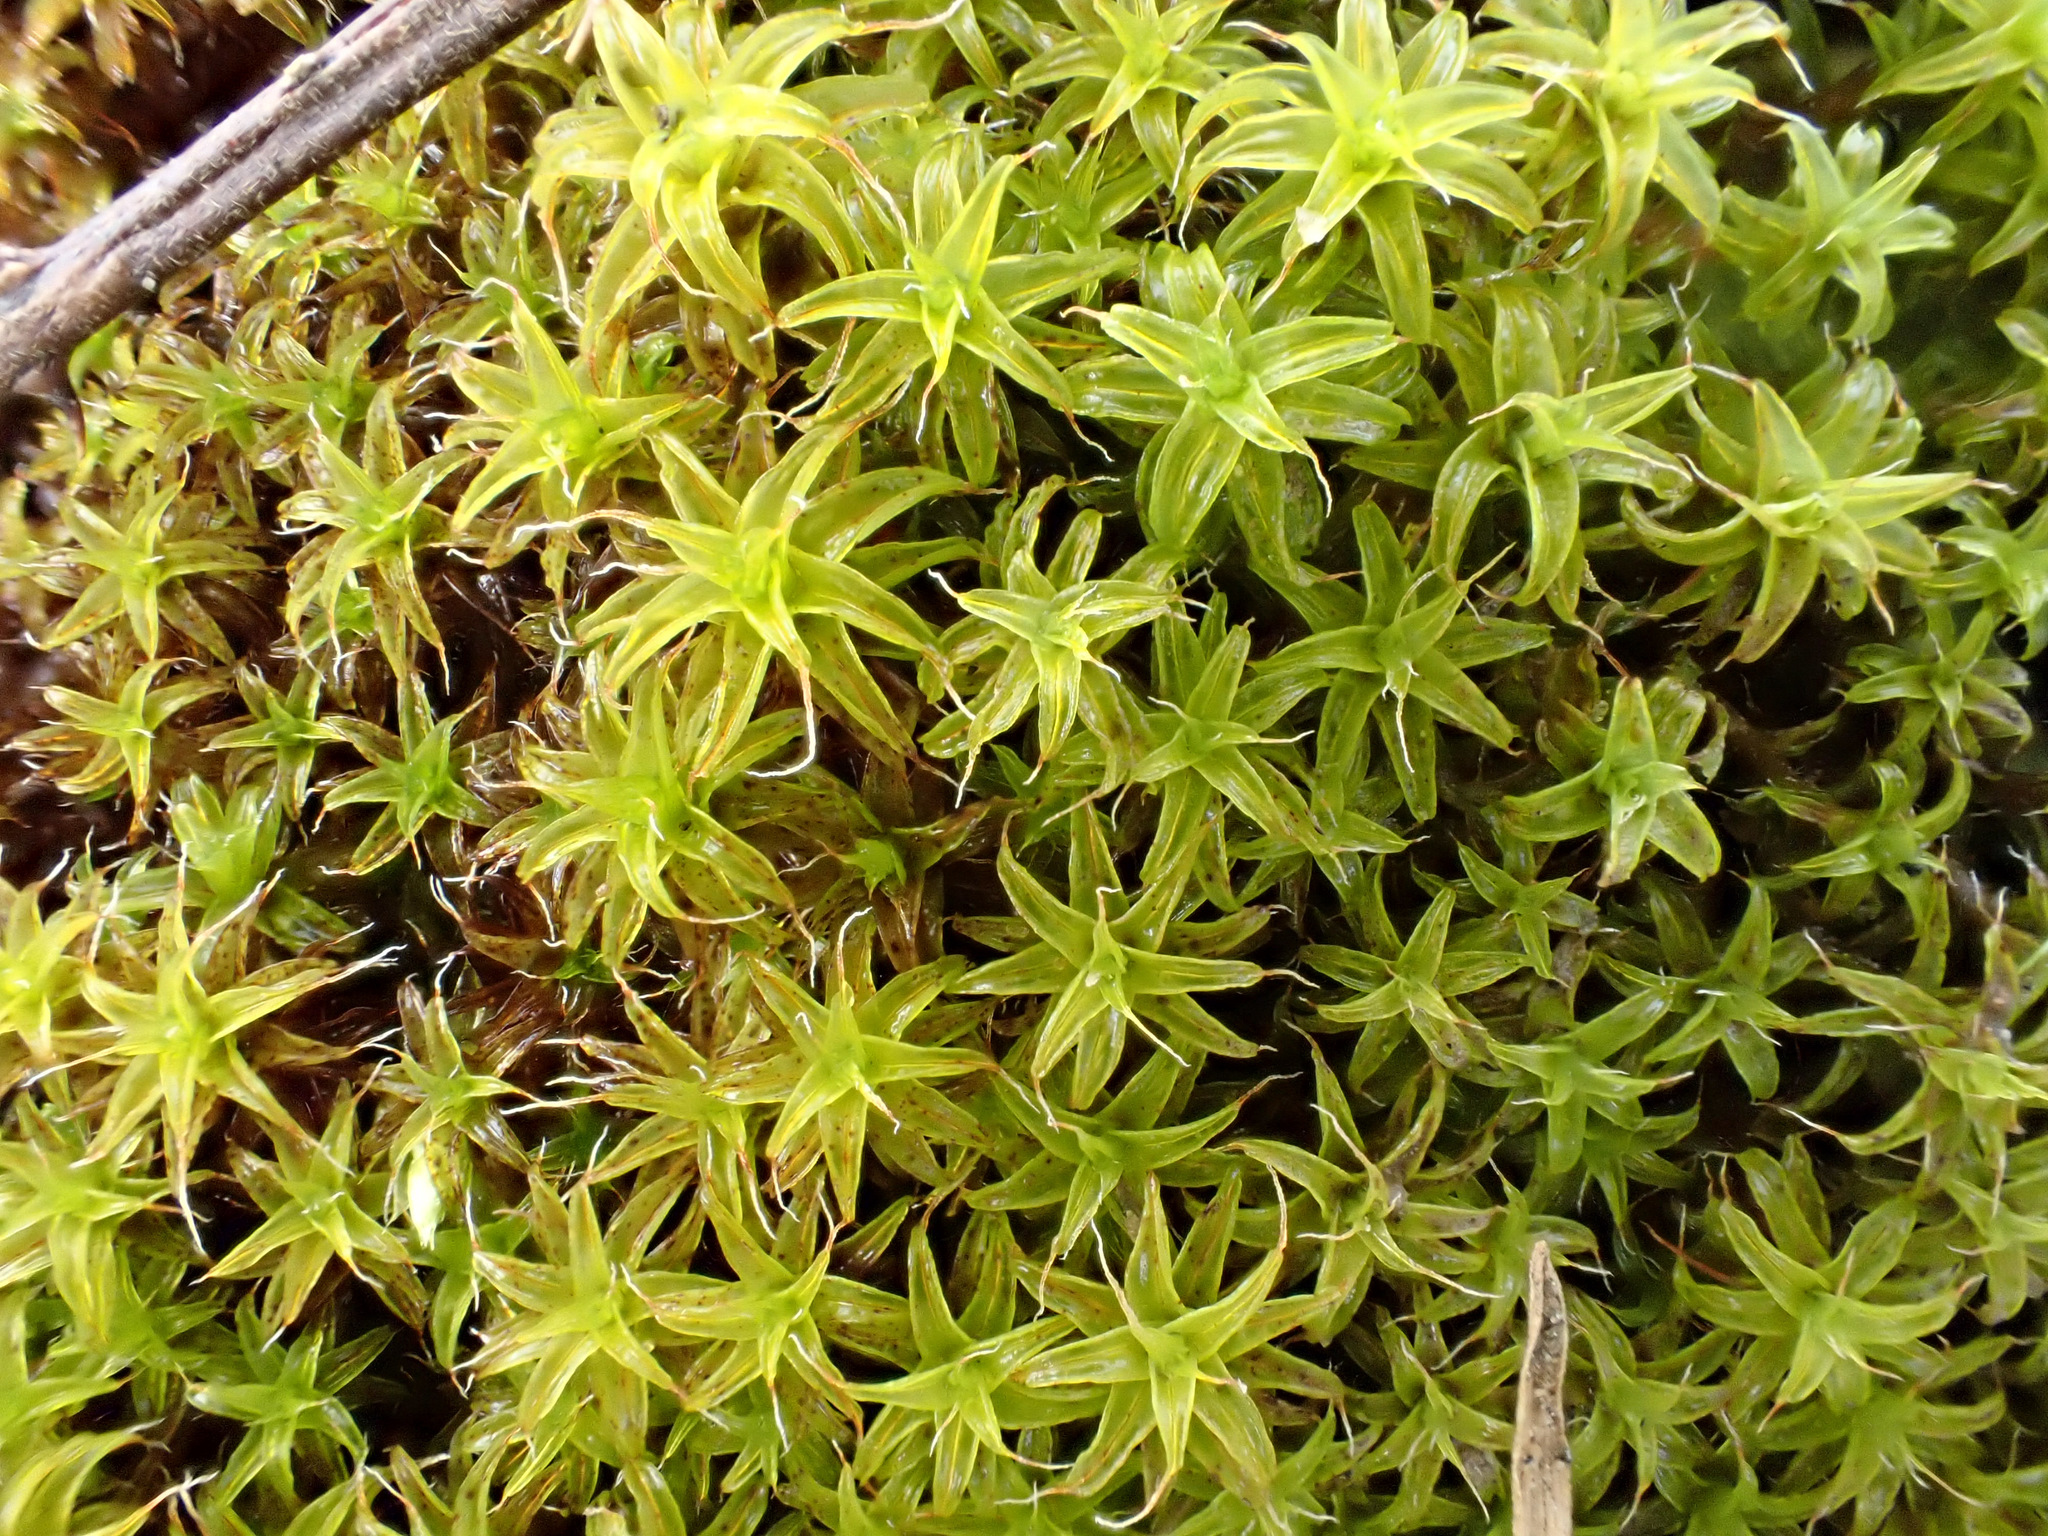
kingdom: Plantae
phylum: Bryophyta
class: Bryopsida
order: Pottiales
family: Pottiaceae
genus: Syntrichia
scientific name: Syntrichia ruralis
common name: Sidewalk screw moss
